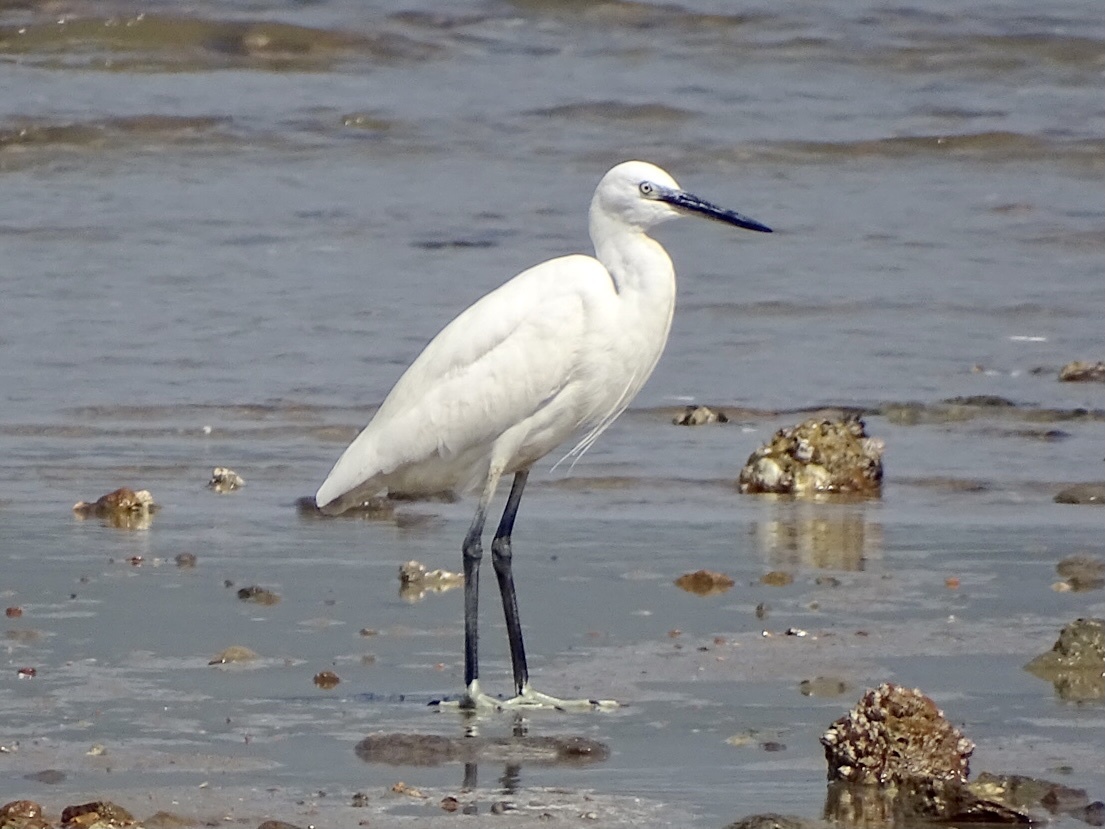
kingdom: Animalia
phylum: Chordata
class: Aves
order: Pelecaniformes
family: Ardeidae
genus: Egretta
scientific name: Egretta garzetta
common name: Little egret
